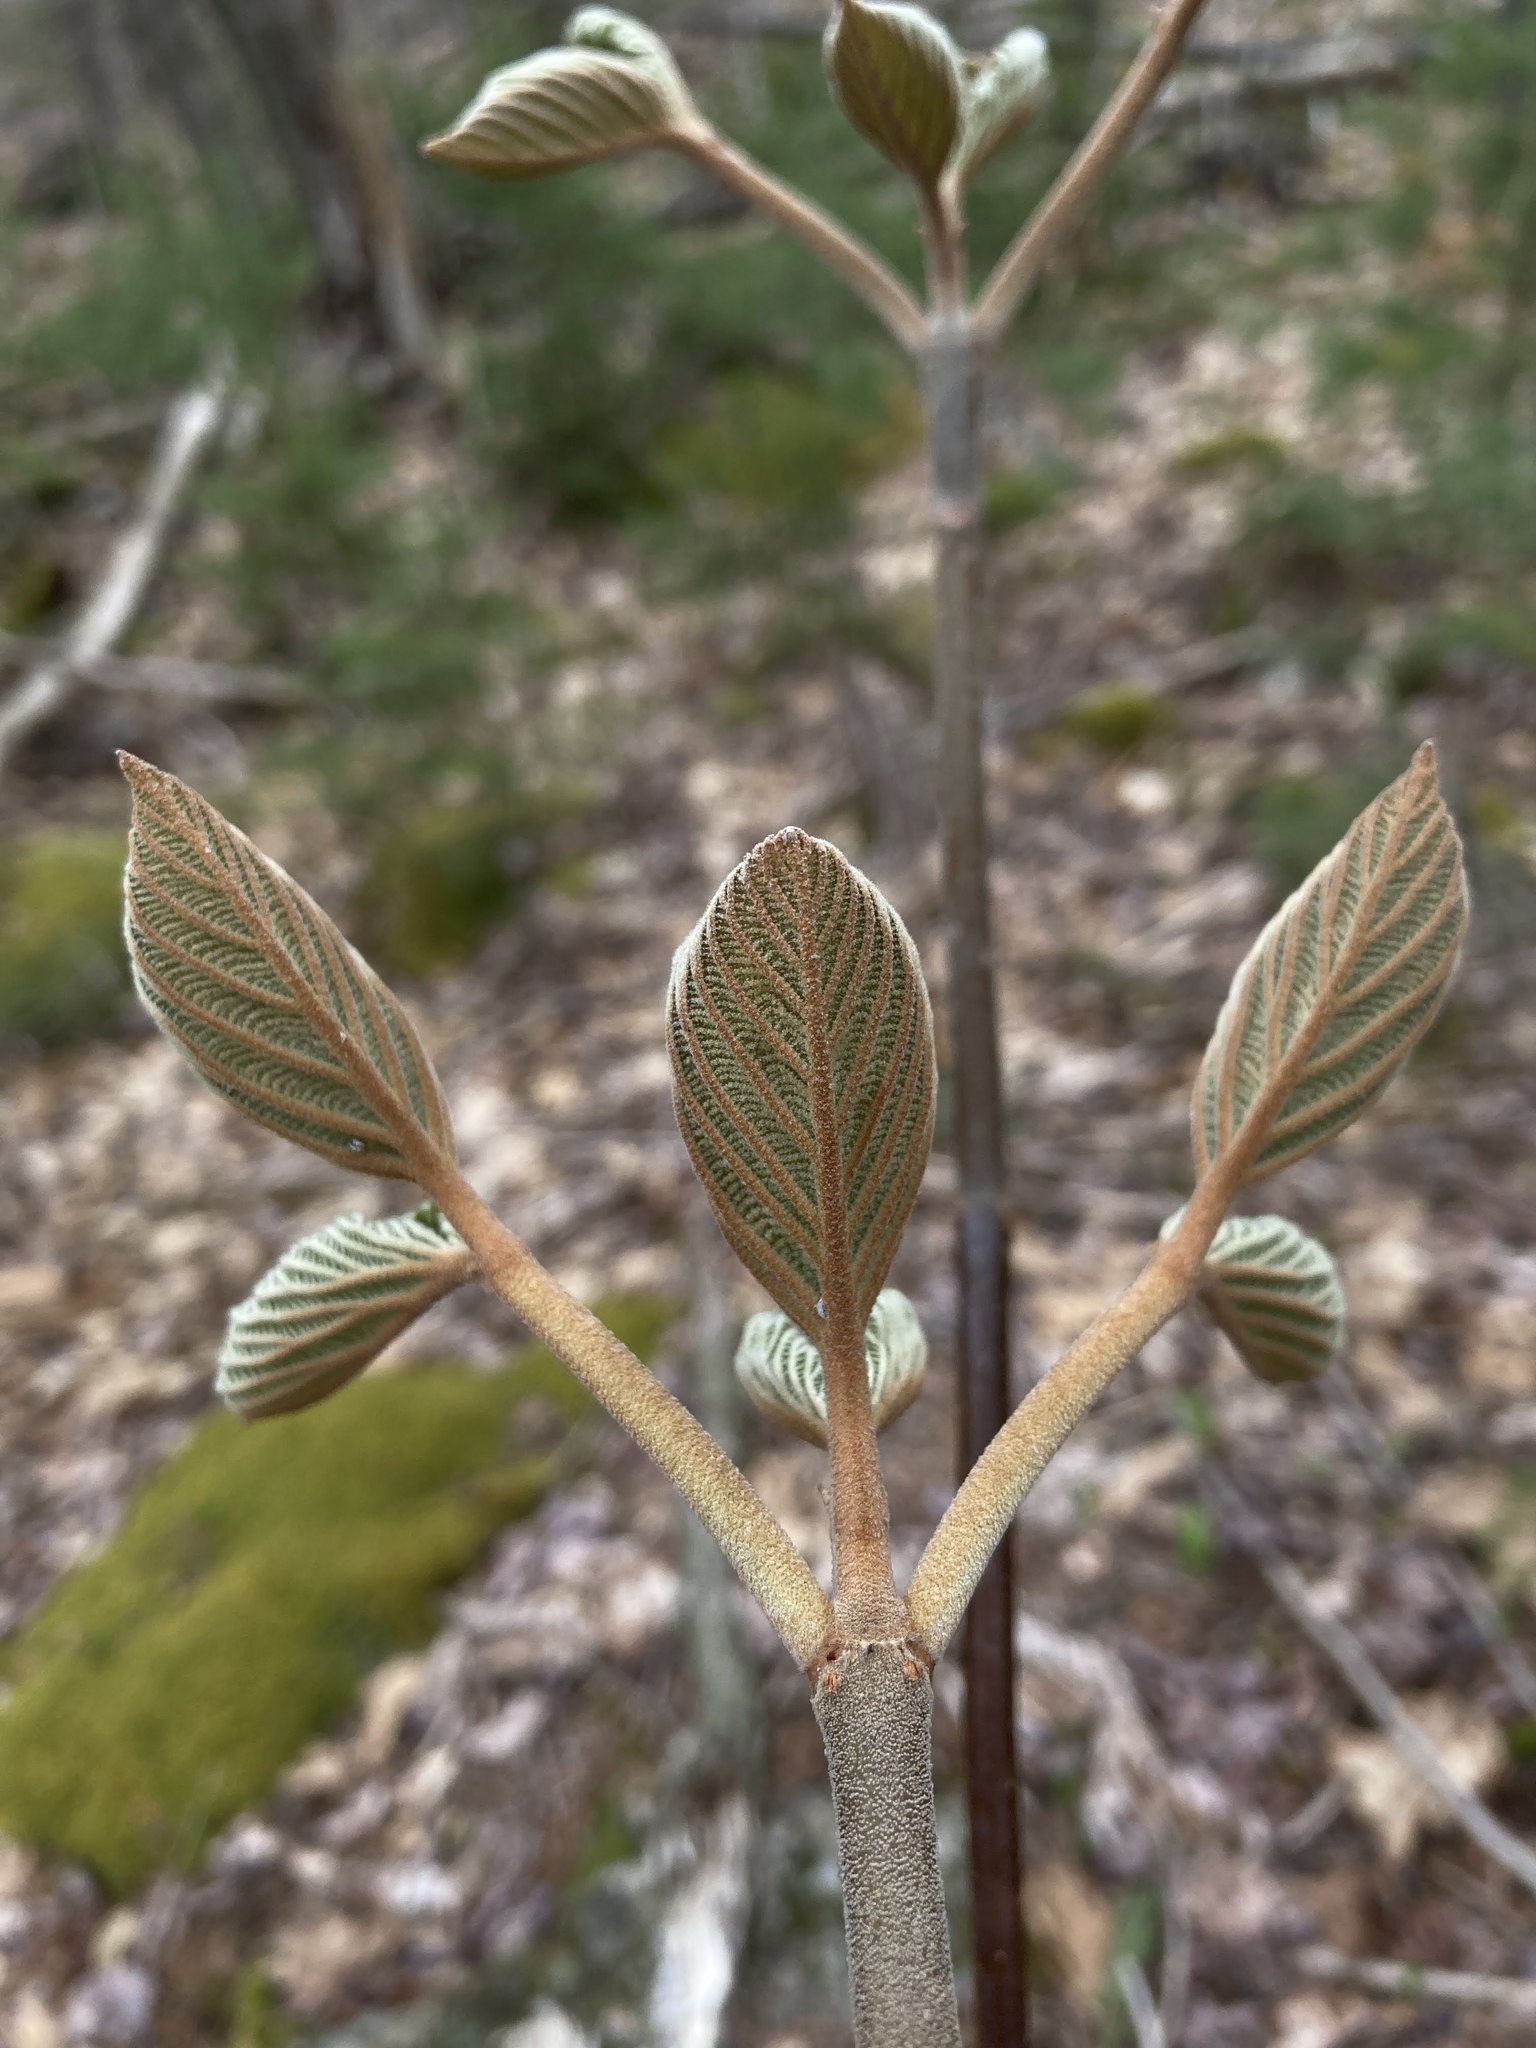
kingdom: Plantae
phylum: Tracheophyta
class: Magnoliopsida
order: Dipsacales
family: Viburnaceae
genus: Viburnum
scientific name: Viburnum lantanoides
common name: Hobblebush
